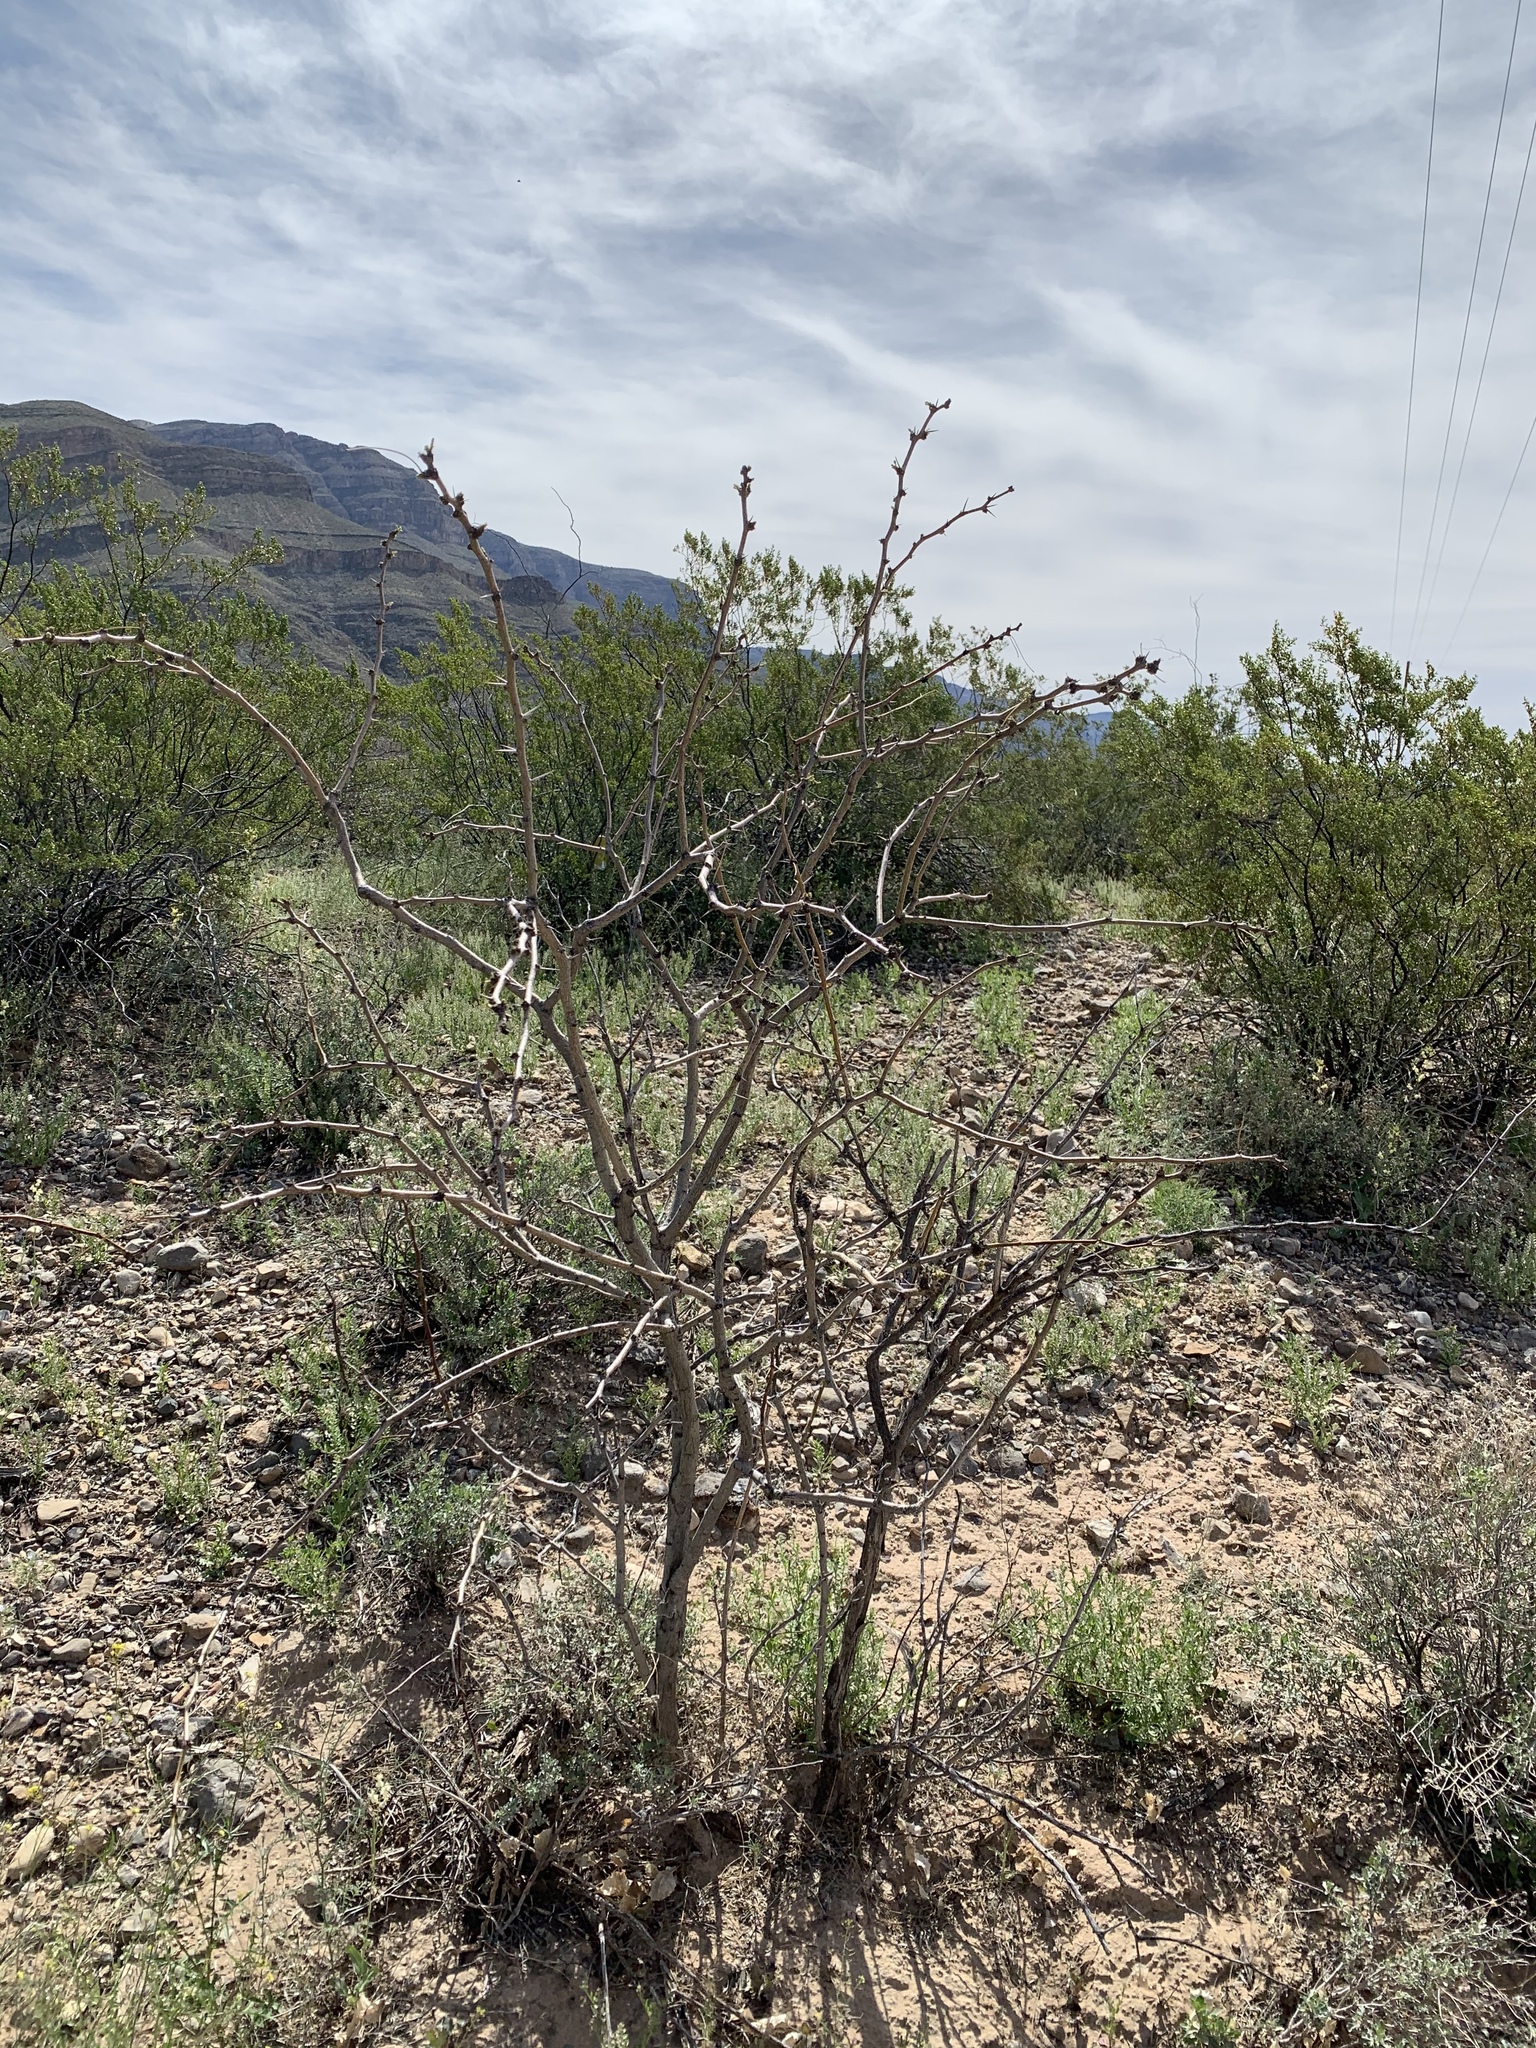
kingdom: Plantae
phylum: Tracheophyta
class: Magnoliopsida
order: Fabales
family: Fabaceae
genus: Prosopis
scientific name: Prosopis glandulosa
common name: Honey mesquite
